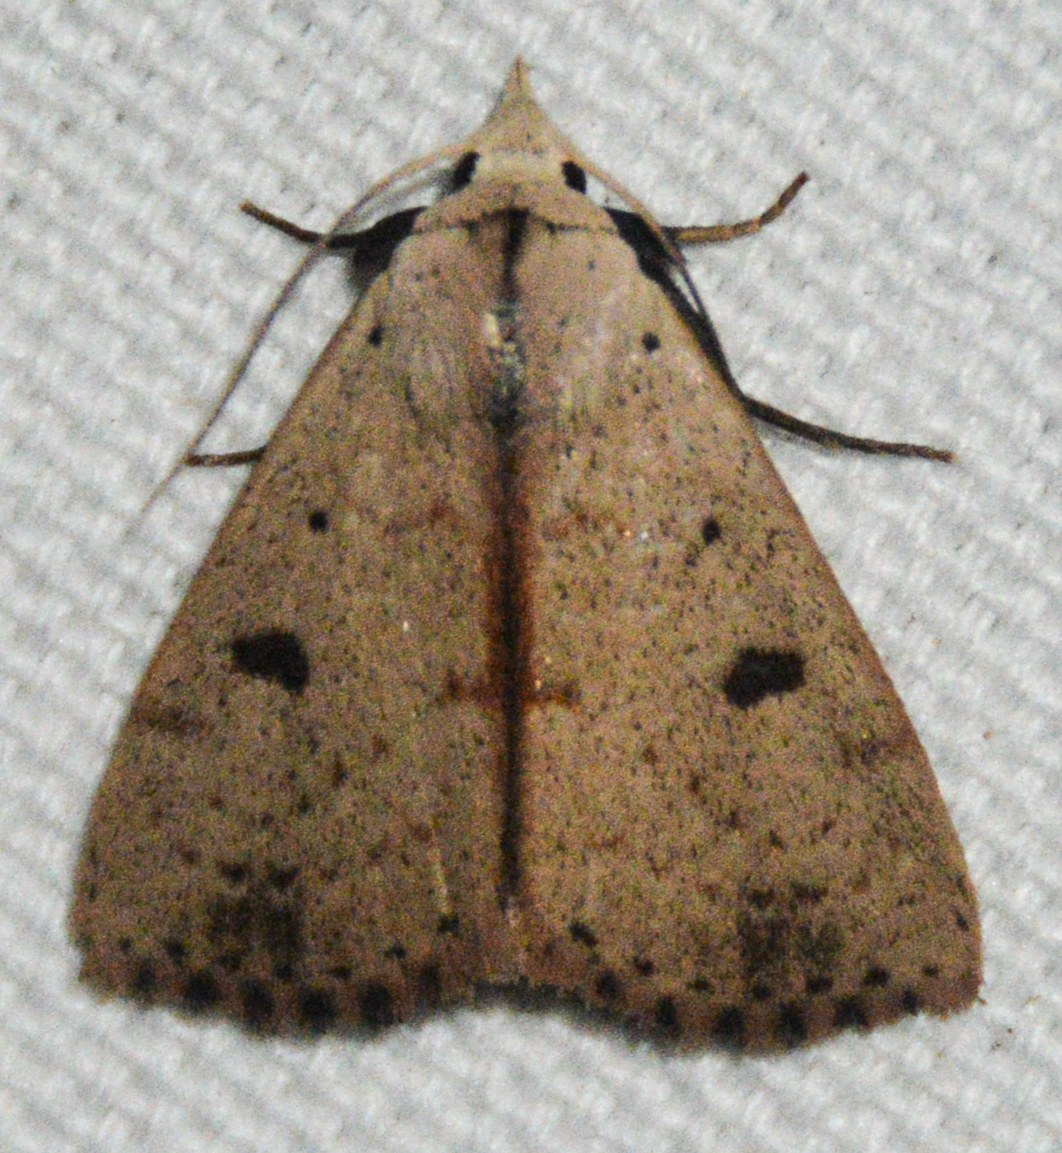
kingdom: Animalia
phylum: Arthropoda
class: Insecta
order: Lepidoptera
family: Erebidae
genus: Scolecocampa
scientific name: Scolecocampa liburna
